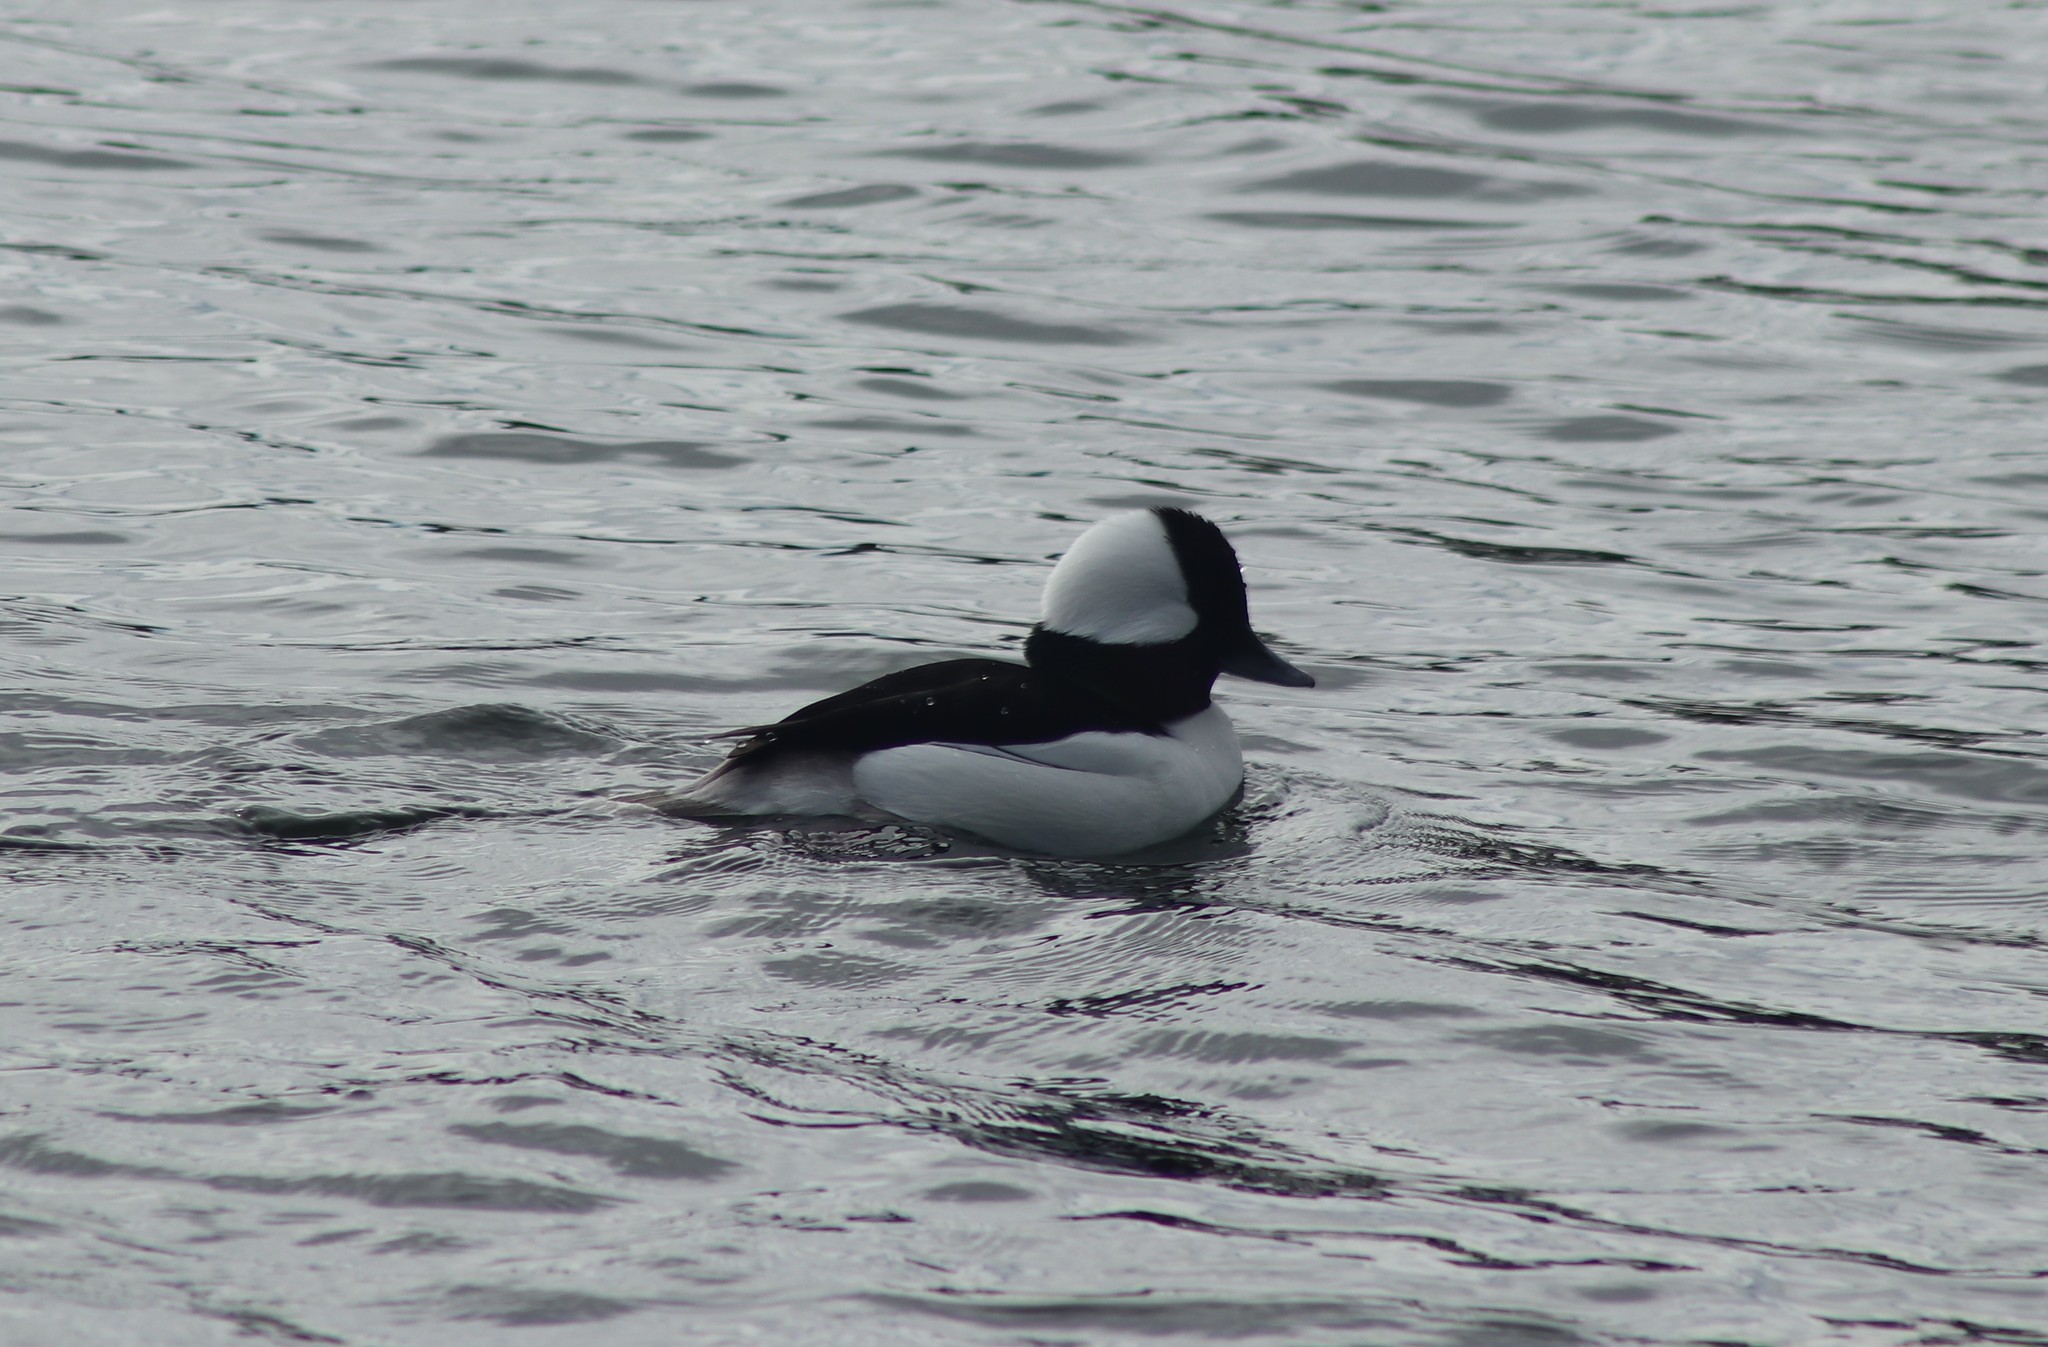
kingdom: Animalia
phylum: Chordata
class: Aves
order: Anseriformes
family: Anatidae
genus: Bucephala
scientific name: Bucephala albeola
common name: Bufflehead
